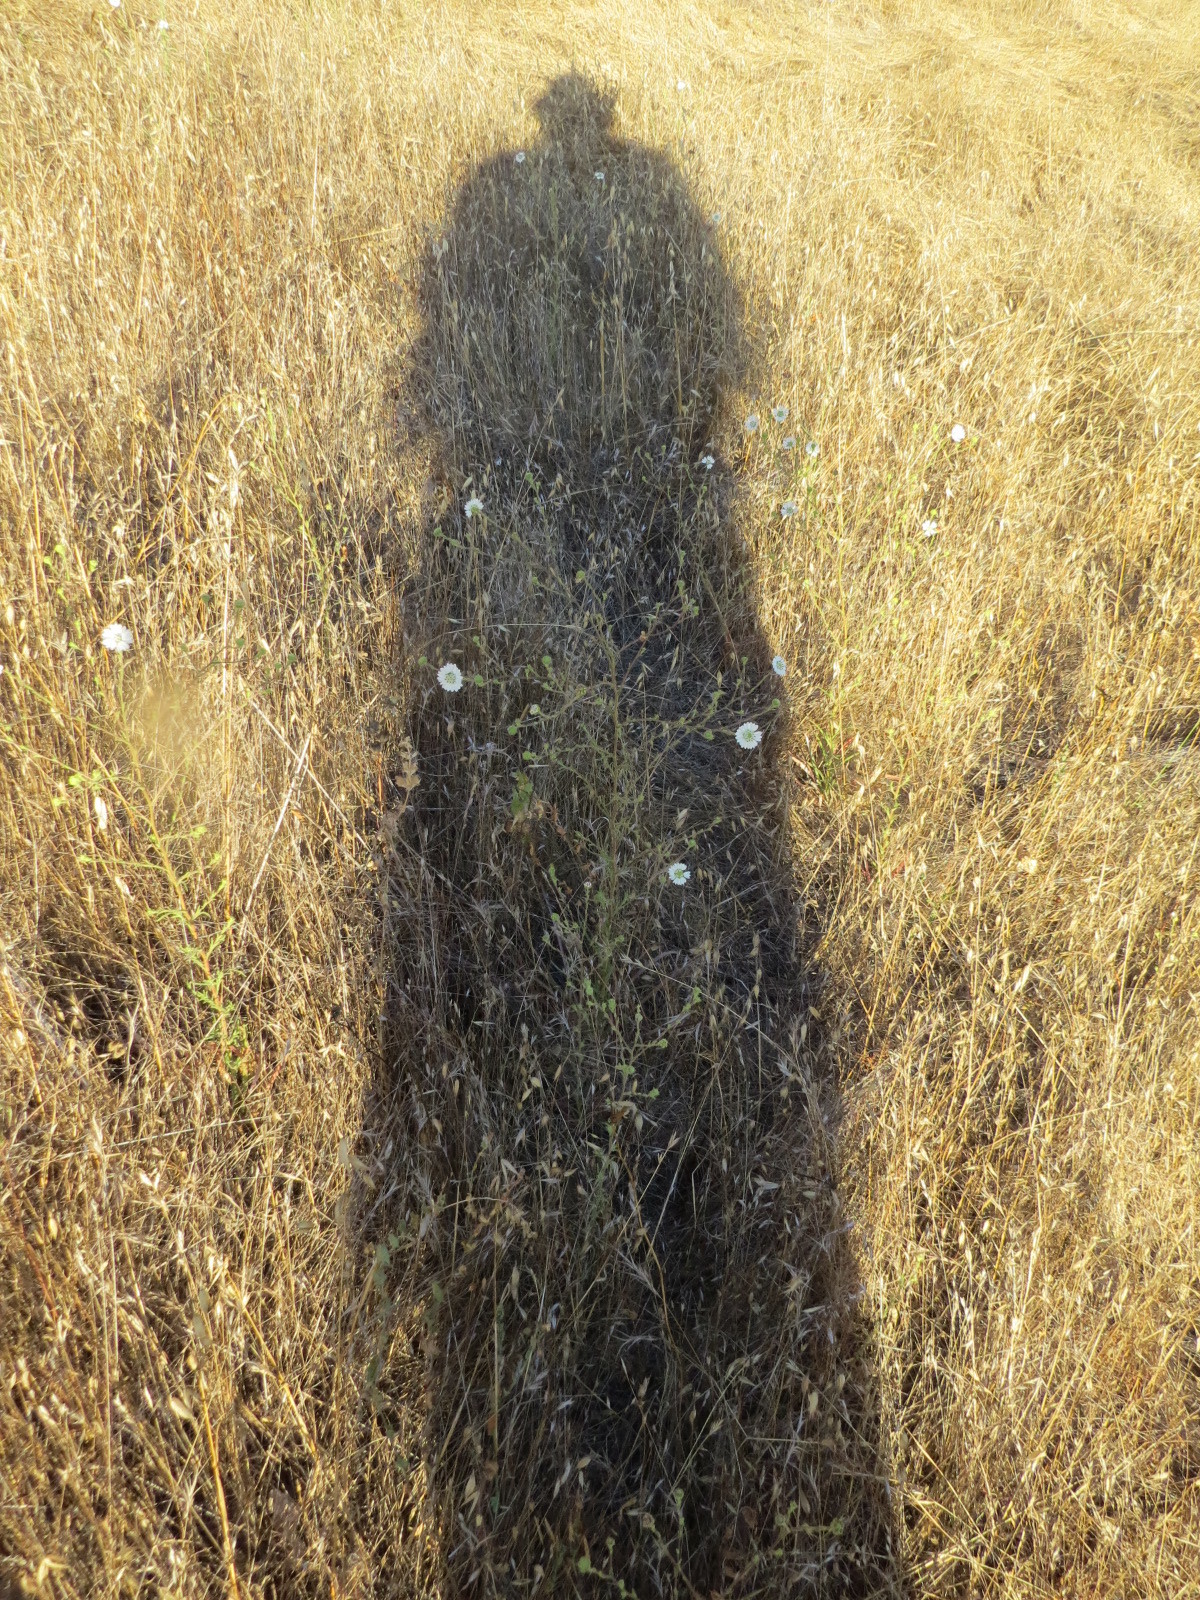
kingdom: Plantae
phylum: Tracheophyta
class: Magnoliopsida
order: Asterales
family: Asteraceae
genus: Hemizonia
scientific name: Hemizonia congesta
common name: Hayfield tarweed
